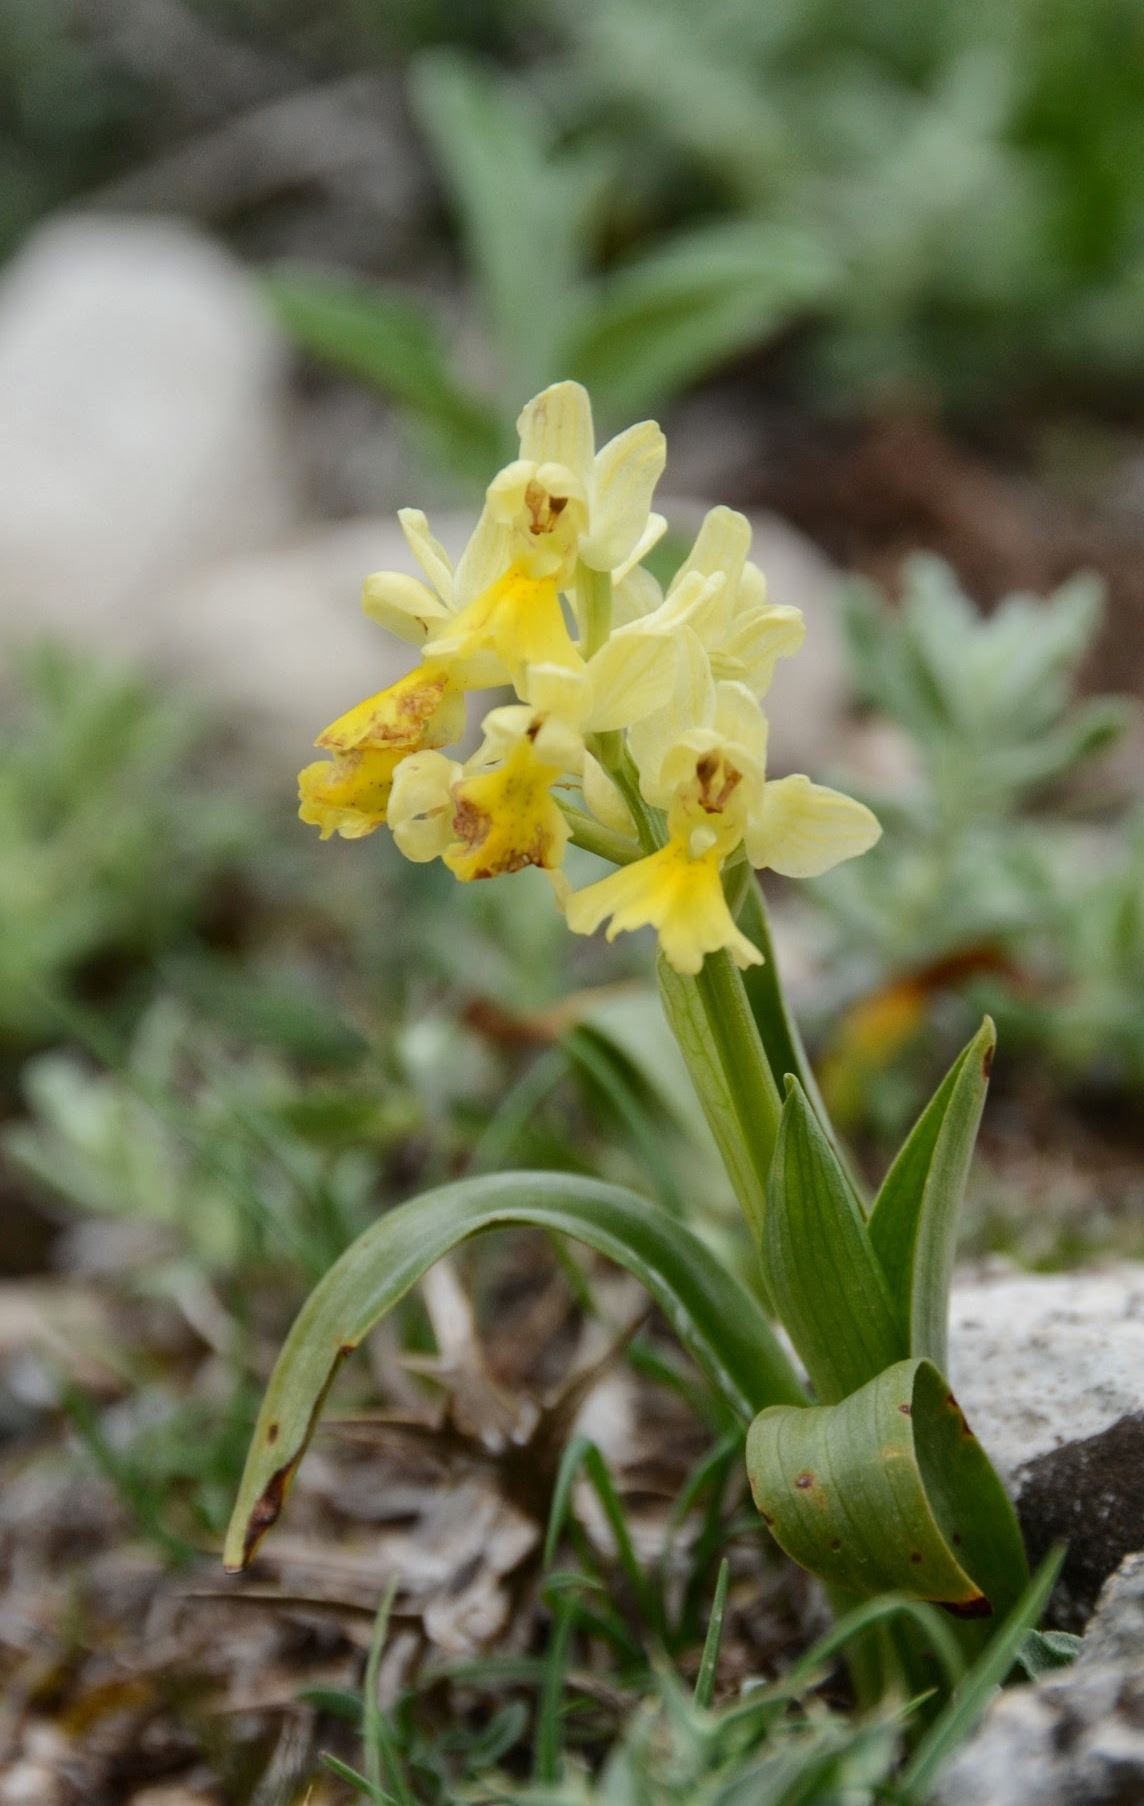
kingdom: Plantae
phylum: Tracheophyta
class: Liliopsida
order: Asparagales
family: Orchidaceae
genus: Orchis
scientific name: Orchis pauciflora
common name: Few-flowered orchid
